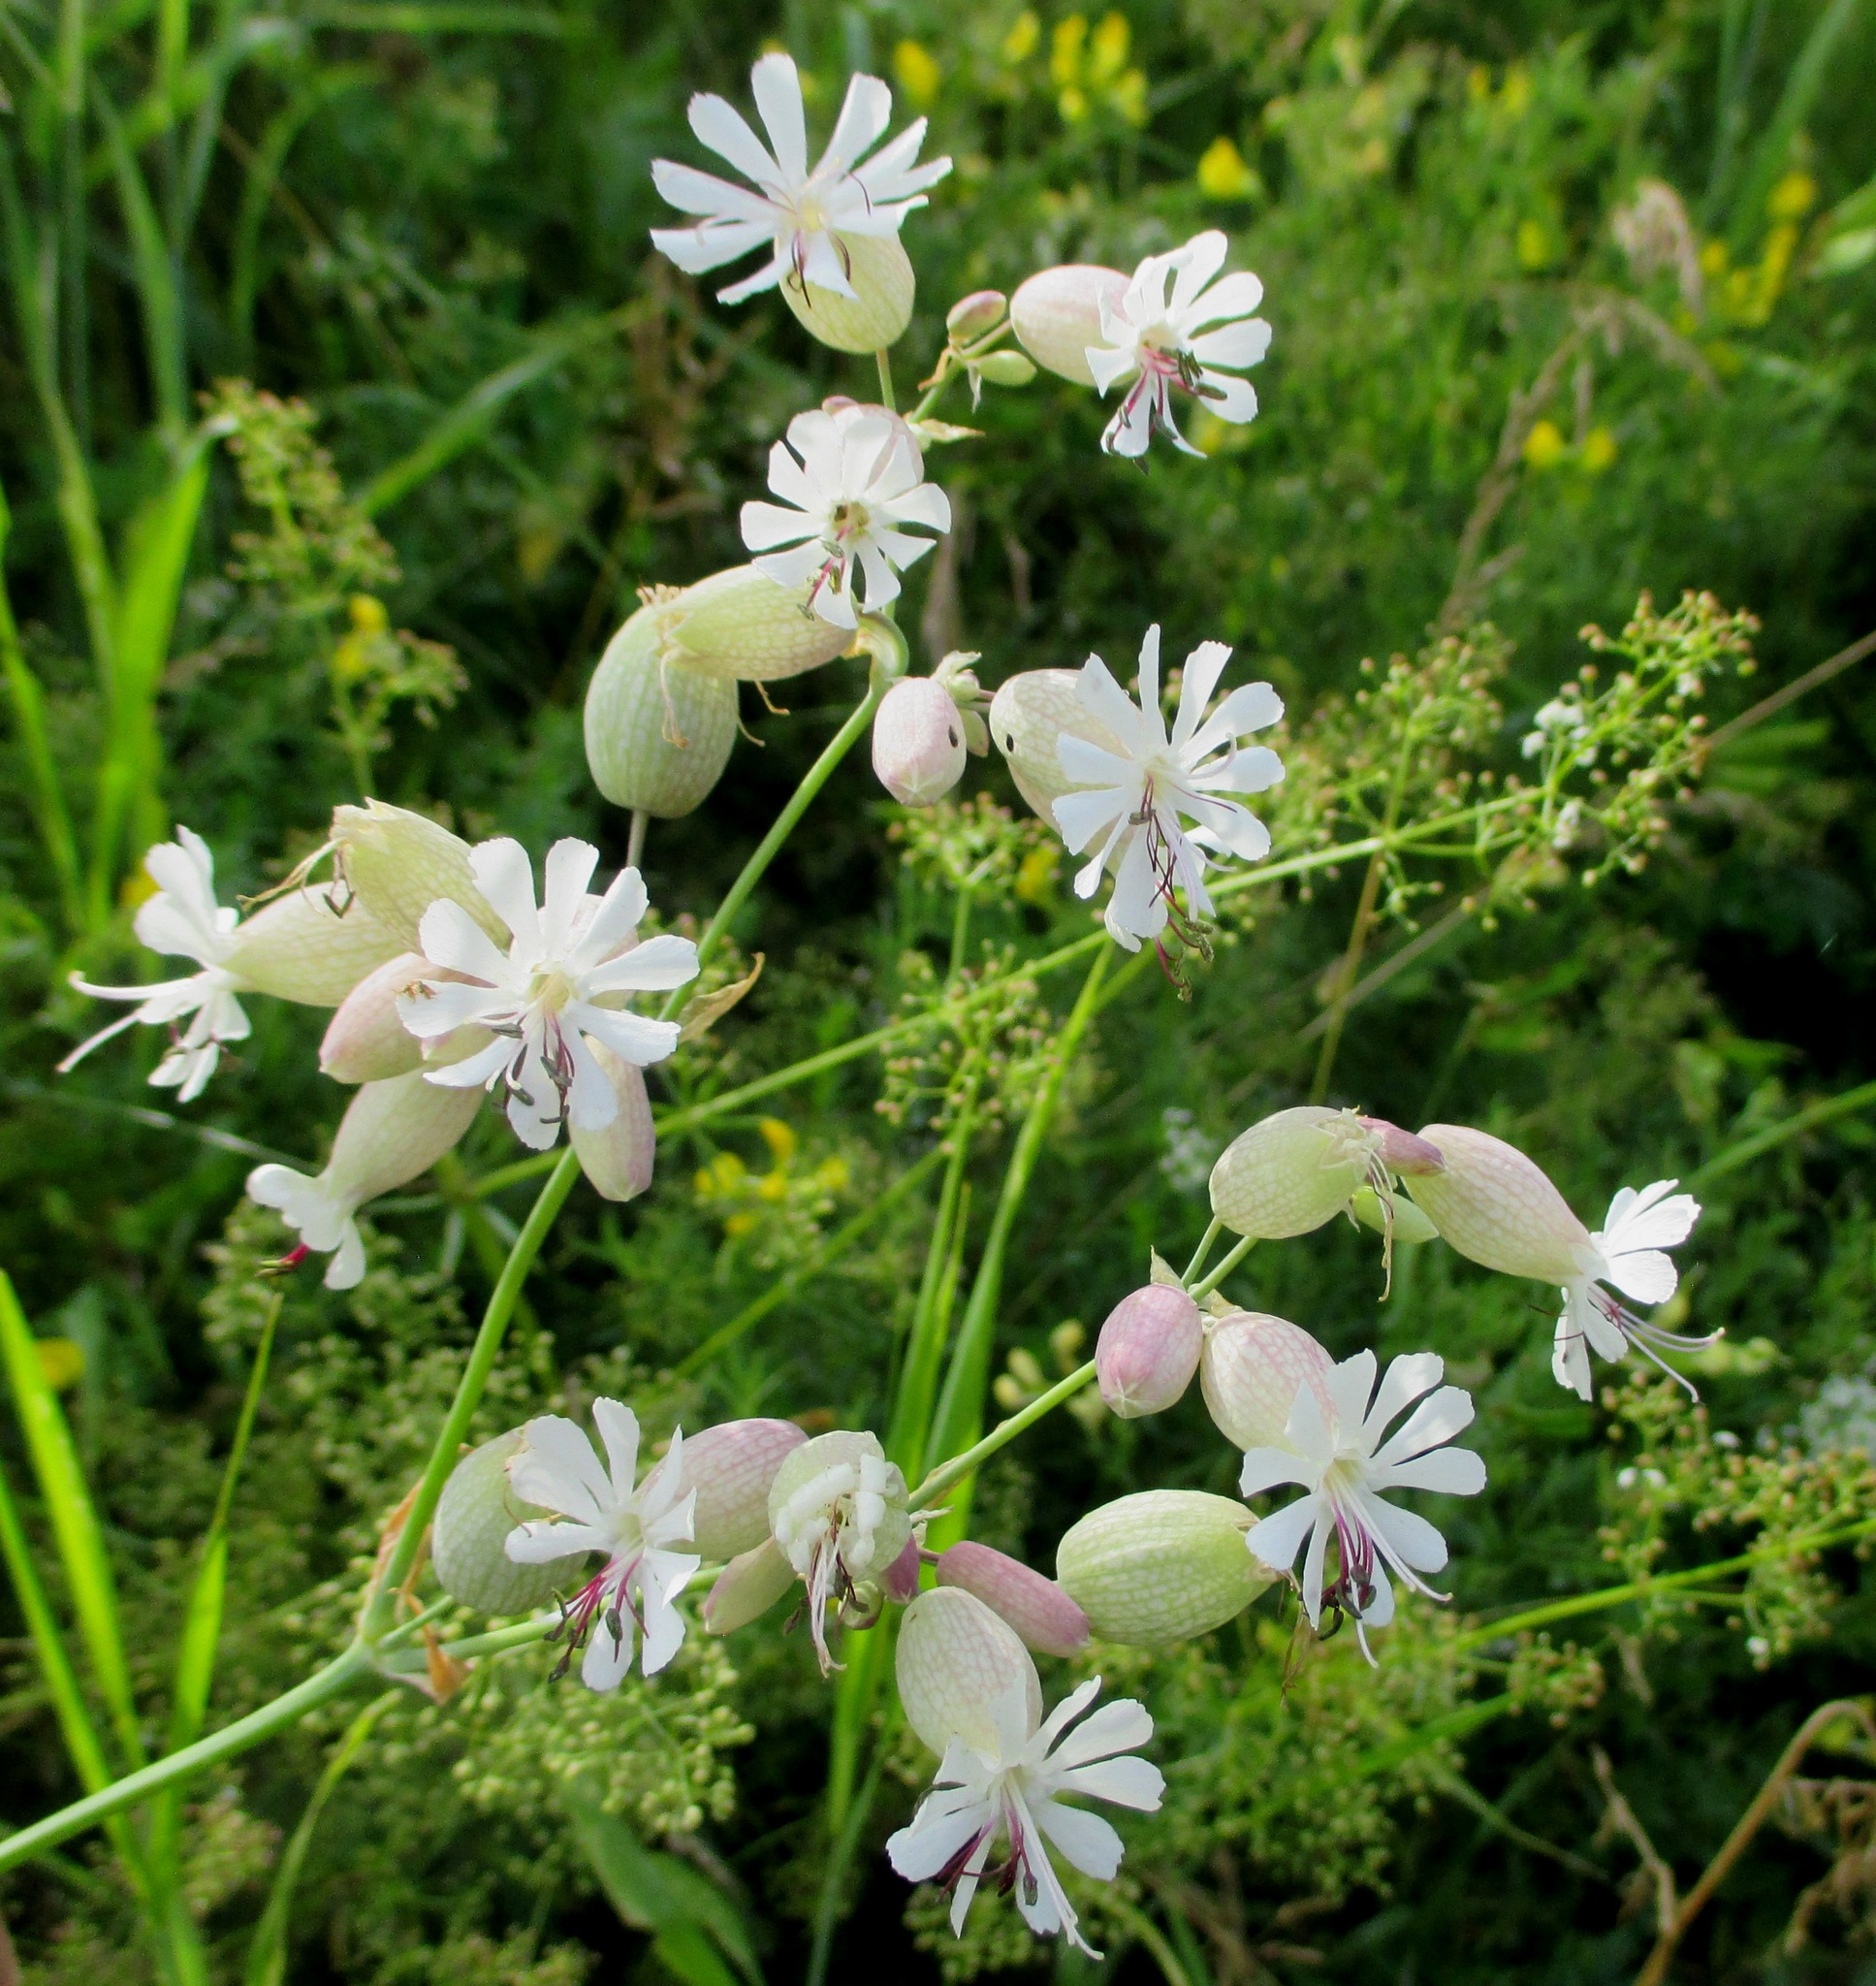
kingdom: Plantae
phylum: Tracheophyta
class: Magnoliopsida
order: Caryophyllales
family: Caryophyllaceae
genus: Silene
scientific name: Silene vulgaris
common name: Bladder campion
